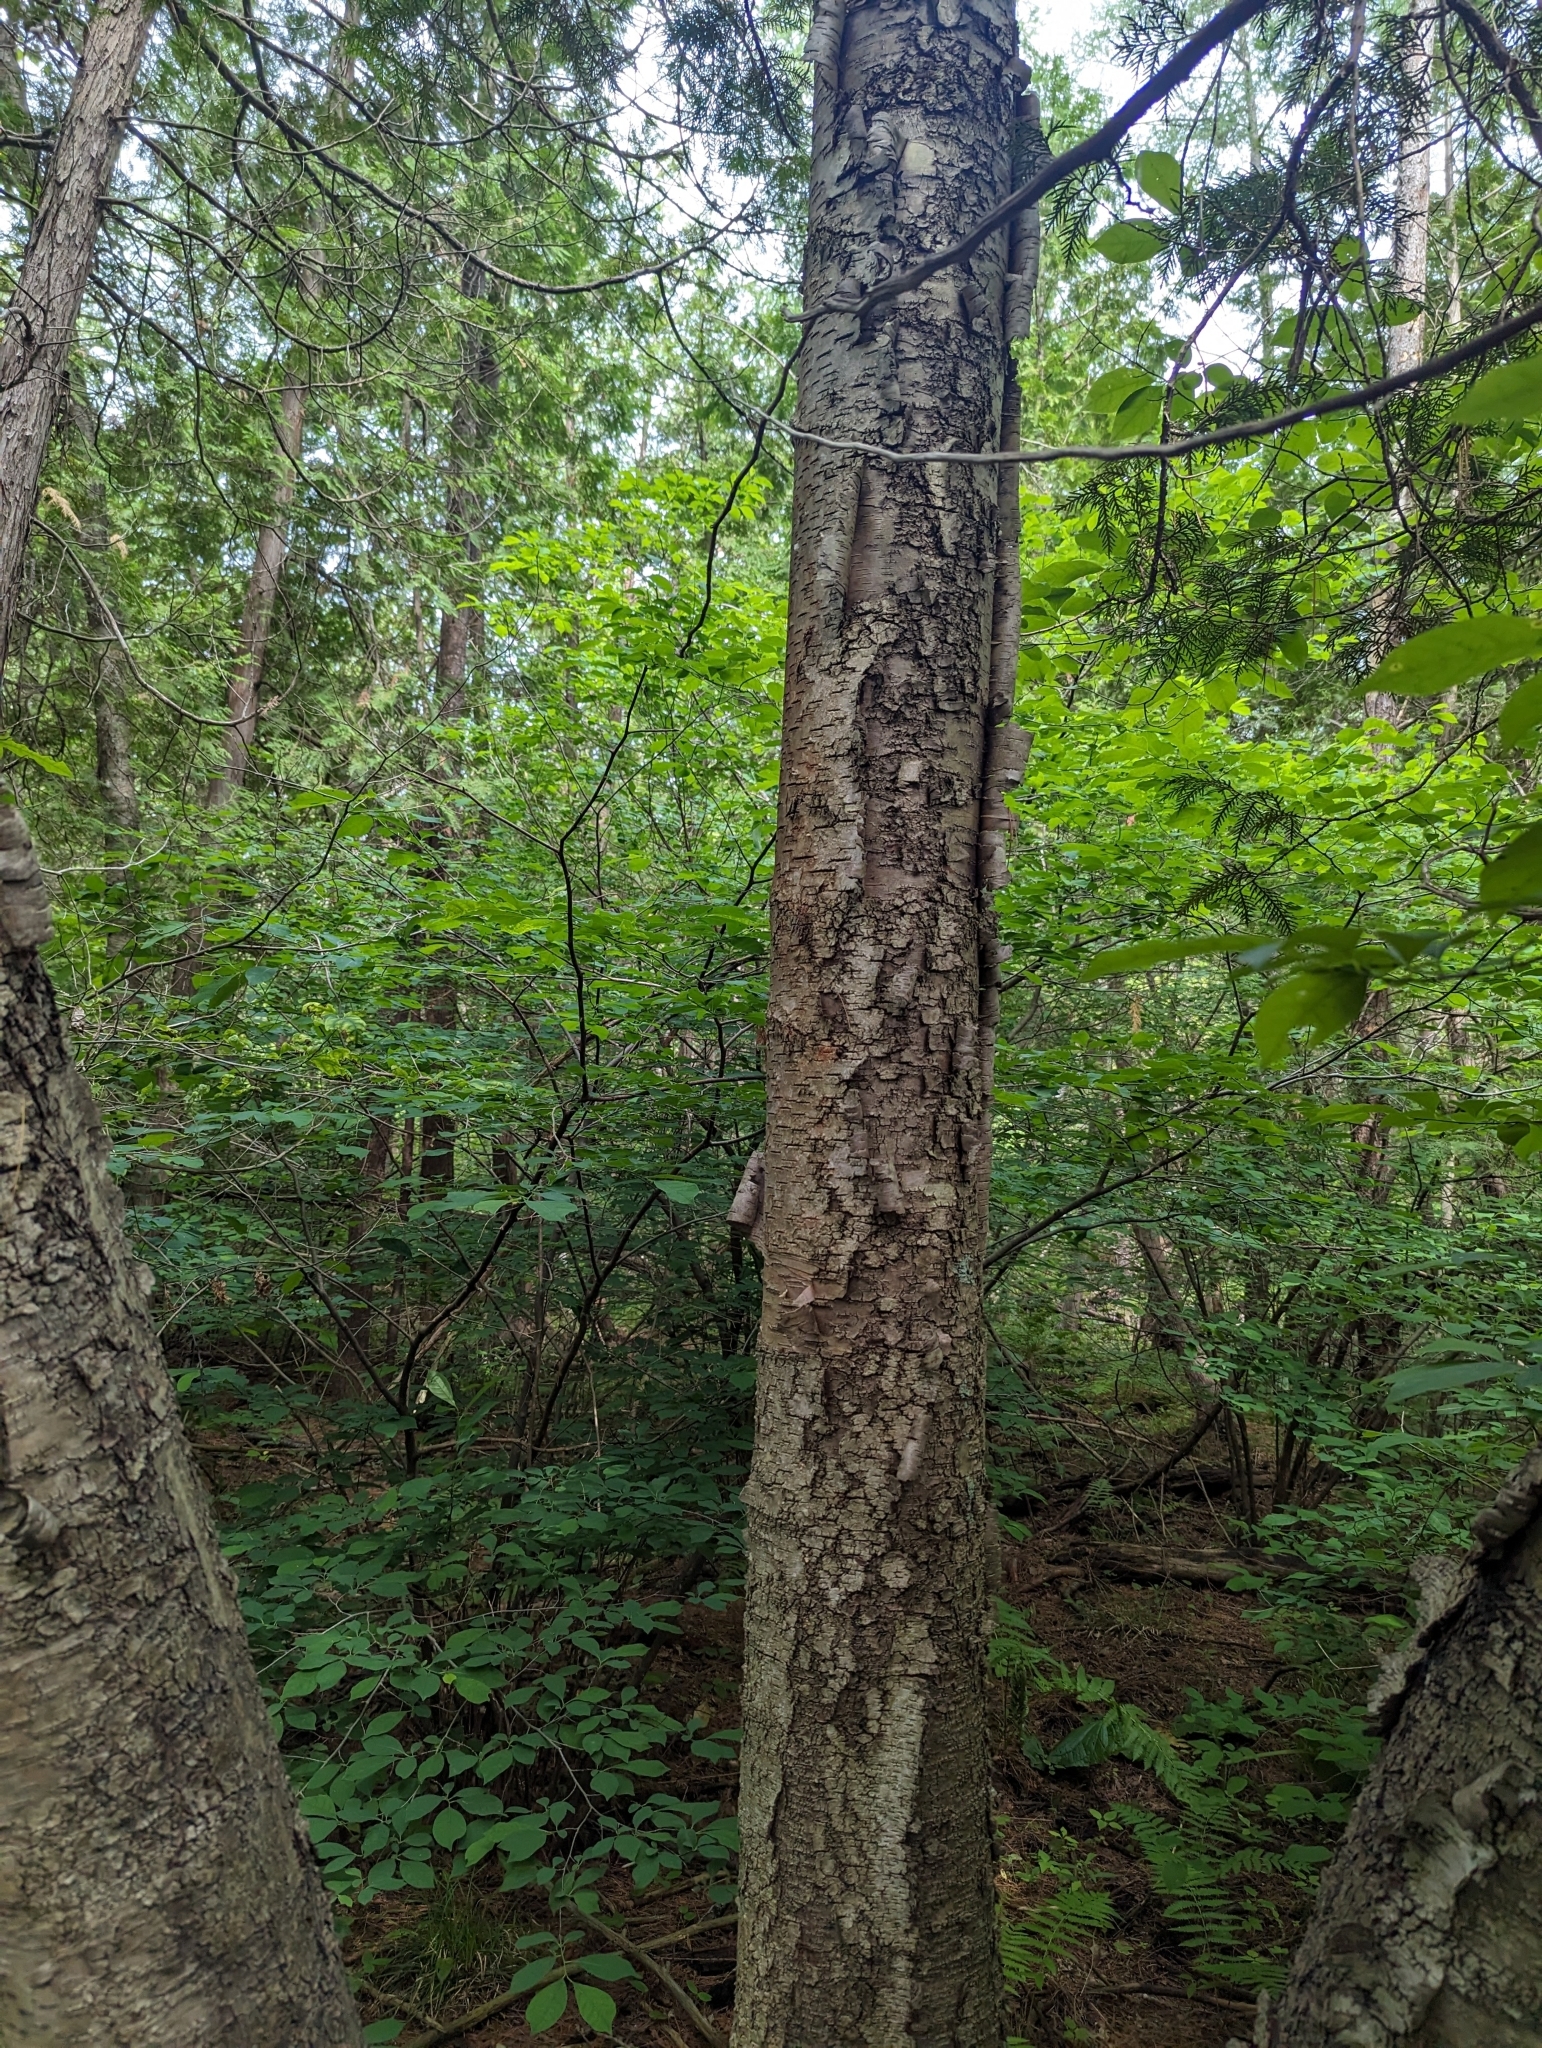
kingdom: Plantae
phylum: Tracheophyta
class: Magnoliopsida
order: Fagales
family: Betulaceae
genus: Betula
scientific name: Betula alleghaniensis
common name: Yellow birch
